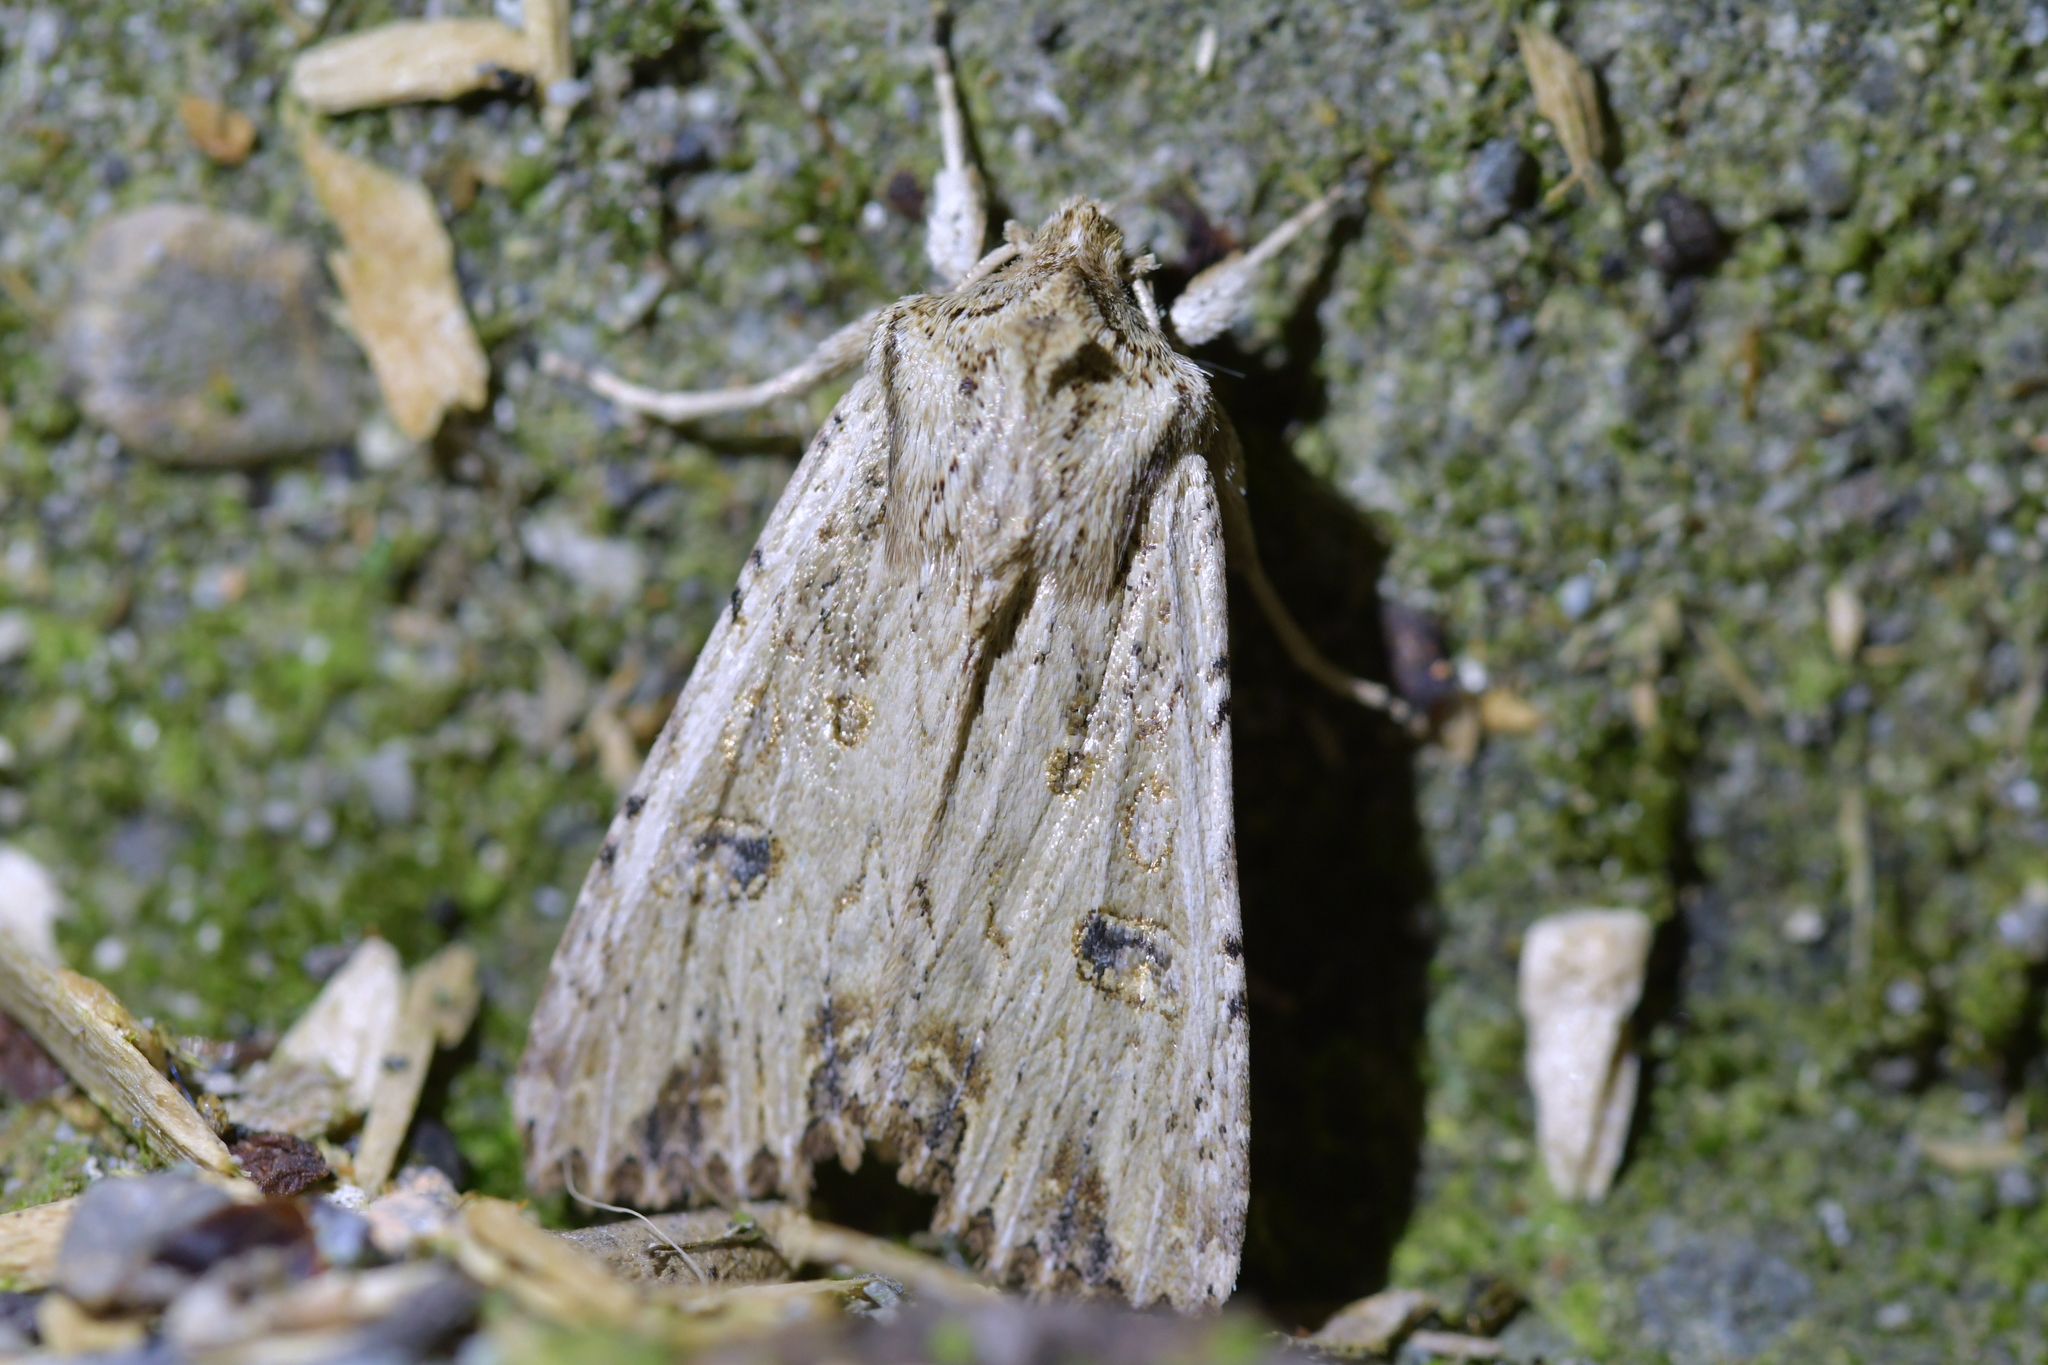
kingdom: Animalia
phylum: Arthropoda
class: Insecta
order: Lepidoptera
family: Noctuidae
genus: Ichneutica
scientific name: Ichneutica lignana
